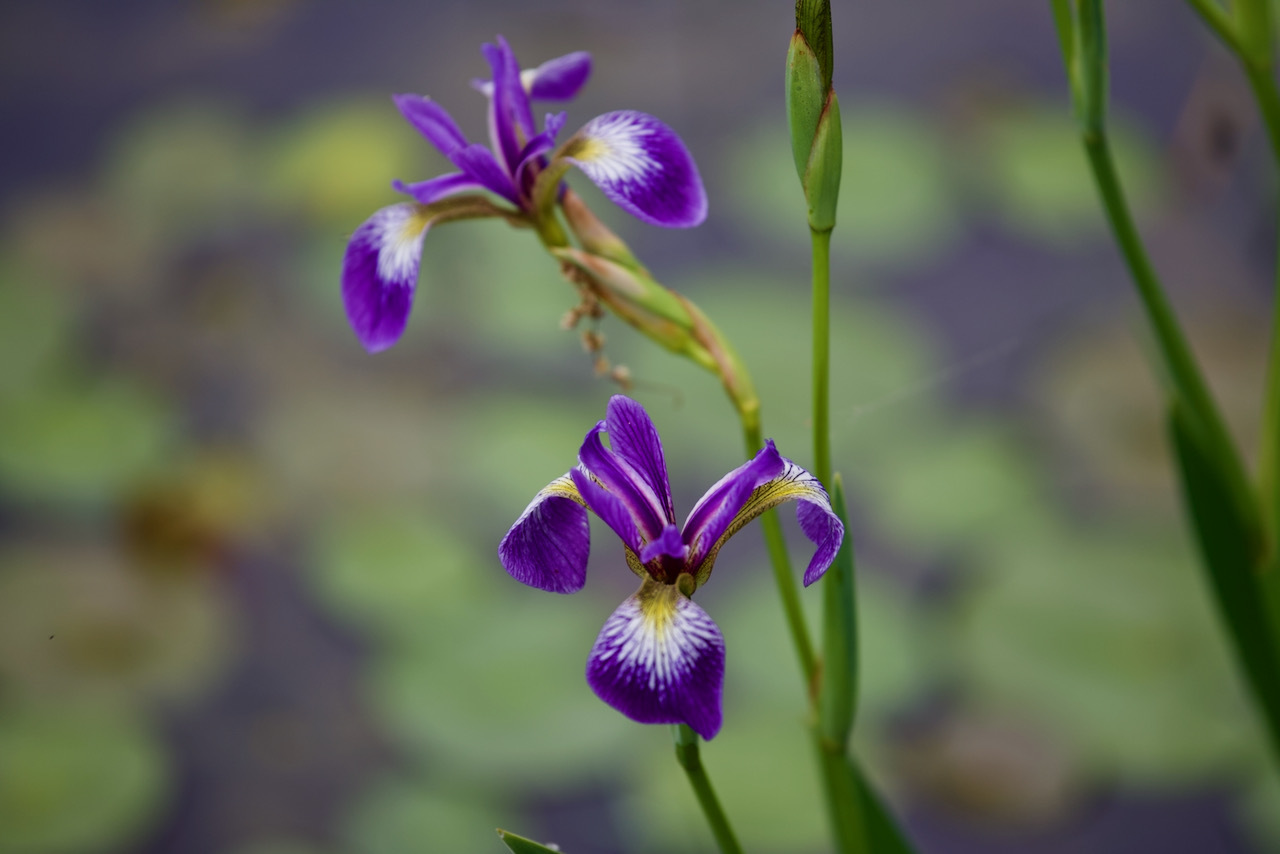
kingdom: Plantae
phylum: Tracheophyta
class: Liliopsida
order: Asparagales
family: Iridaceae
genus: Iris
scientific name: Iris versicolor
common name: Purple iris
